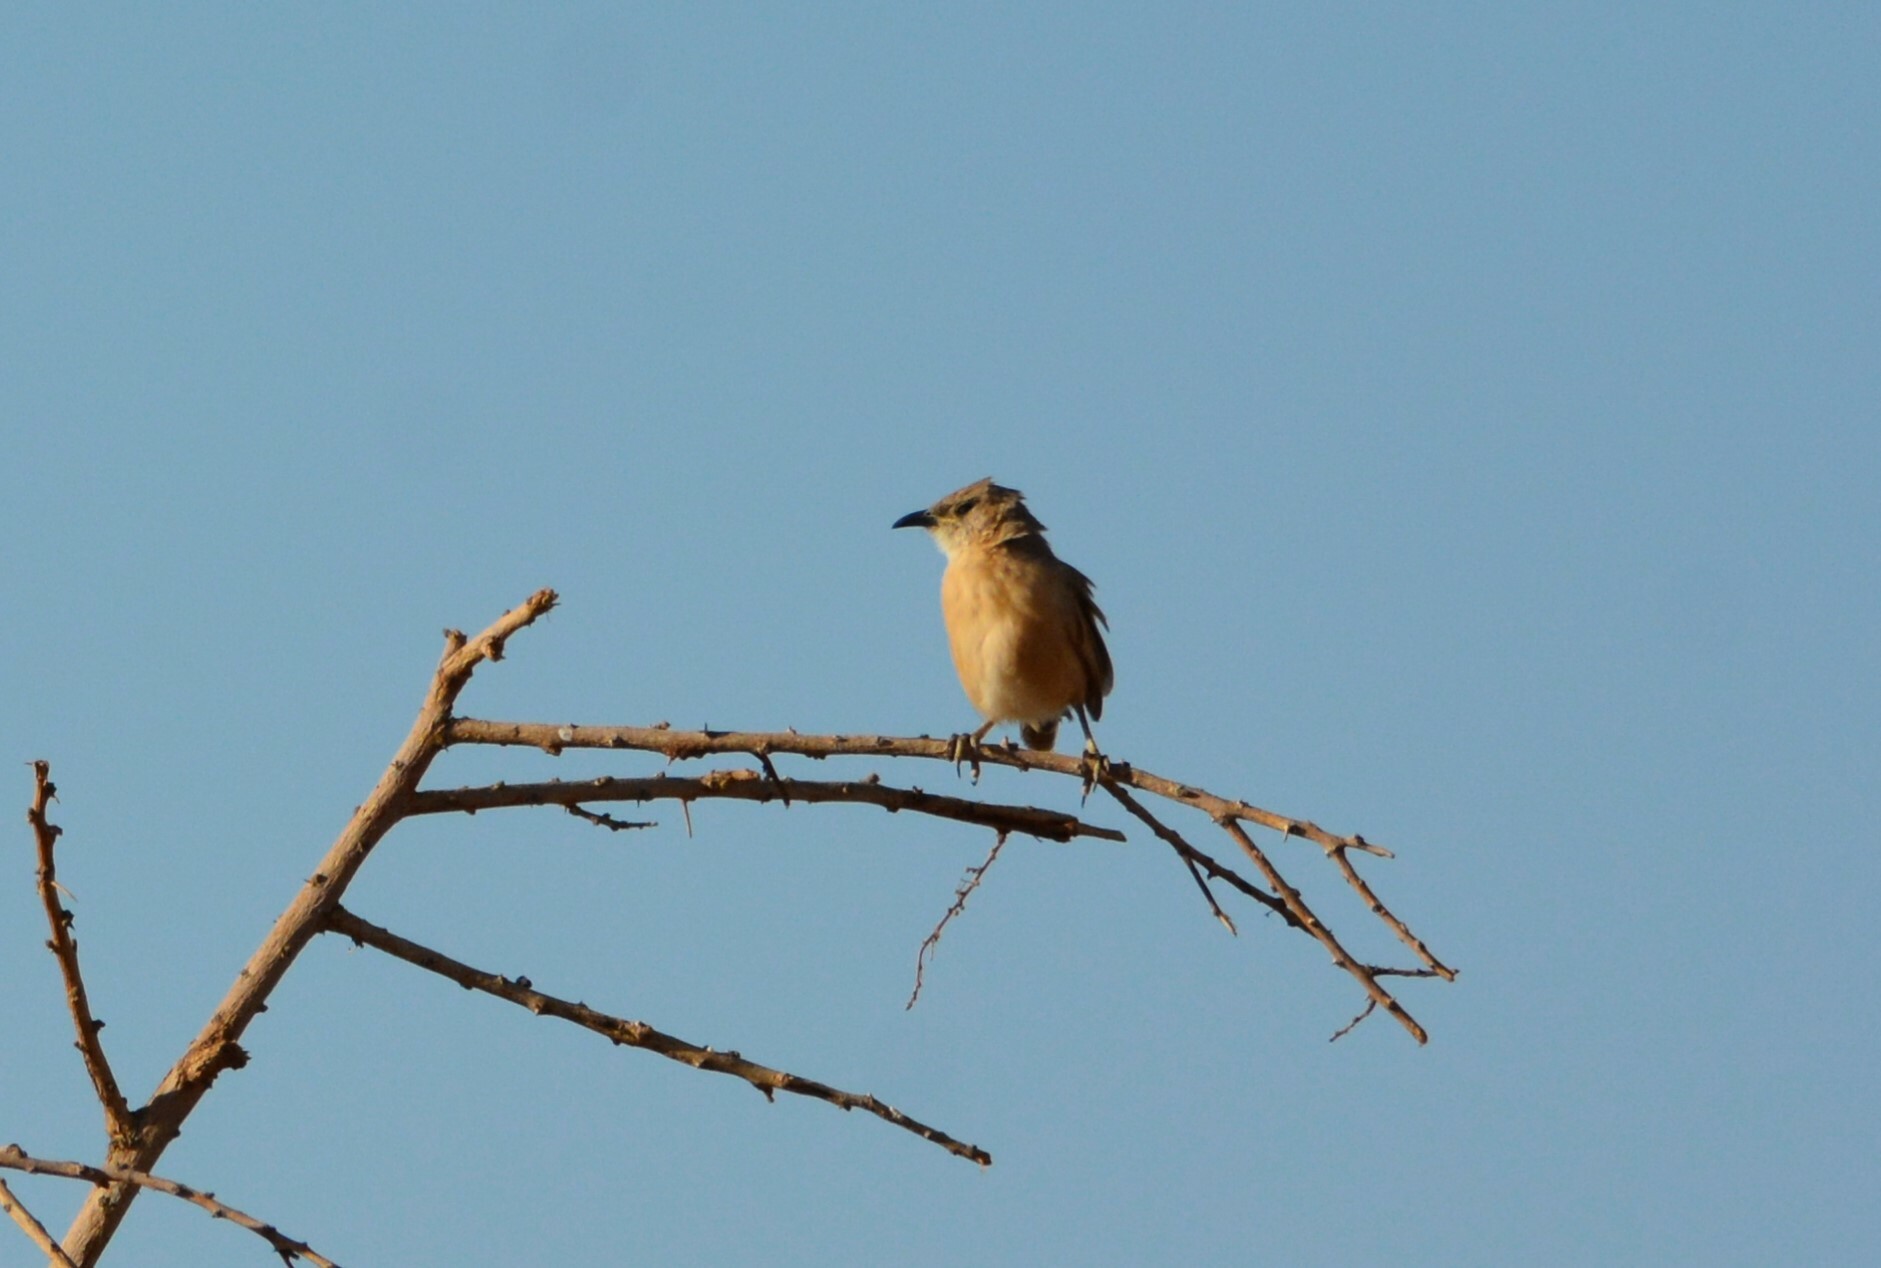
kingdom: Animalia
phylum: Chordata
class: Aves
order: Passeriformes
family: Leiothrichidae
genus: Turdoides
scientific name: Turdoides fulva
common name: Fulvous babbler
